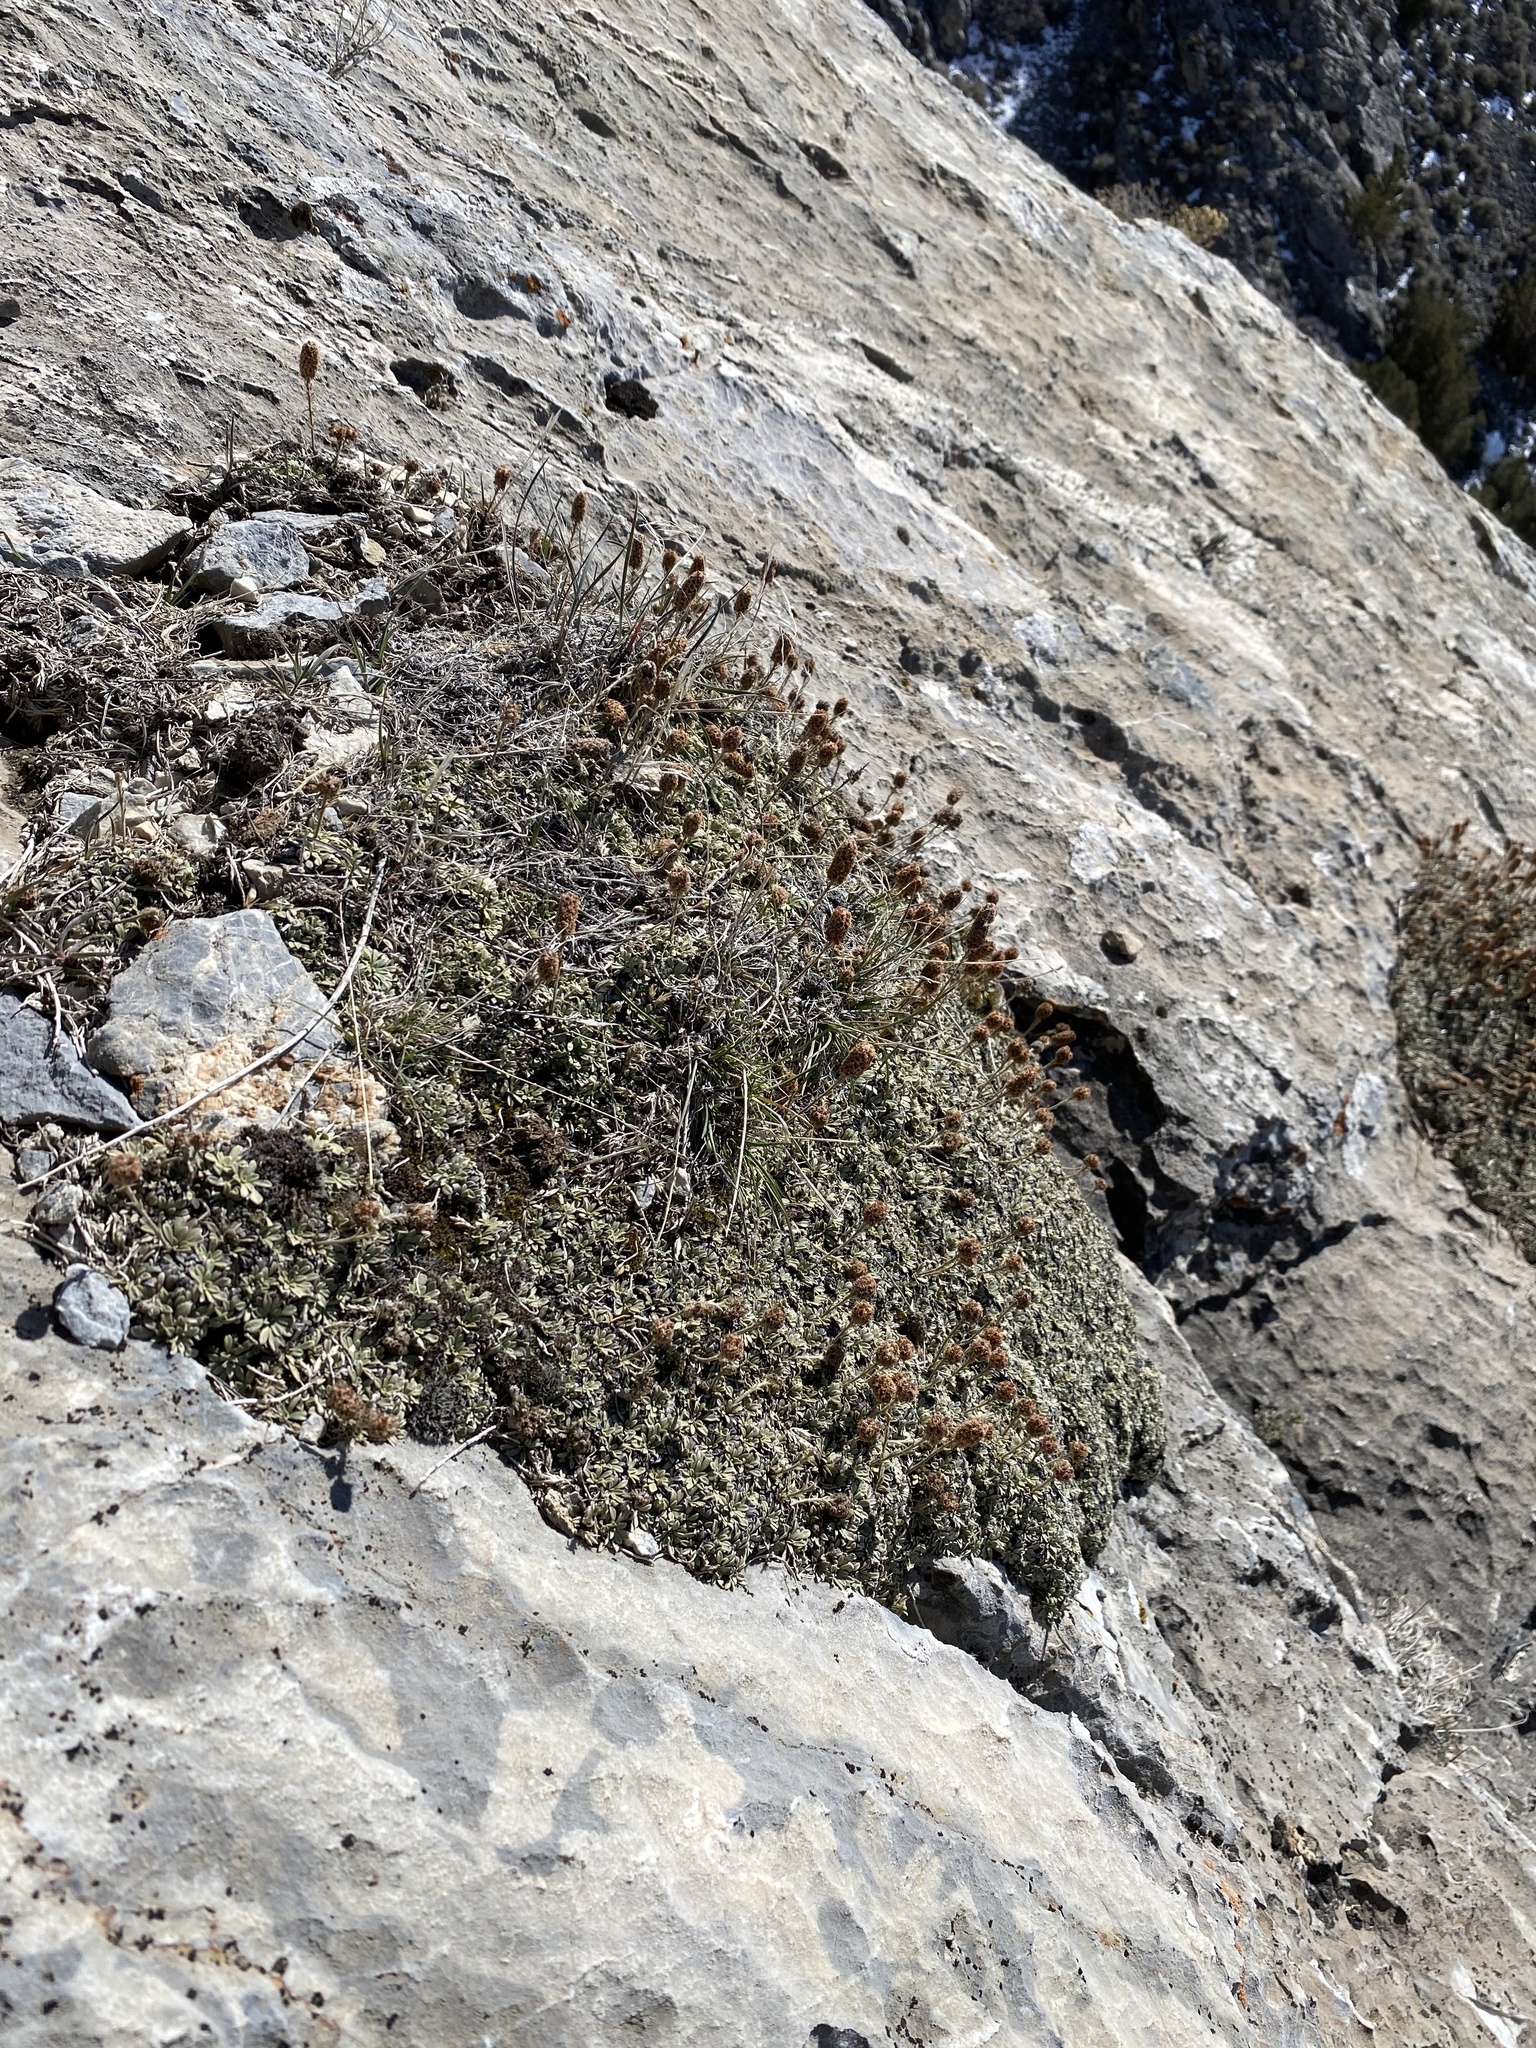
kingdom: Plantae
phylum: Tracheophyta
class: Magnoliopsida
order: Rosales
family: Rosaceae
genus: Petrophytum
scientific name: Petrophytum caespitosum
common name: Mat rockspirea
